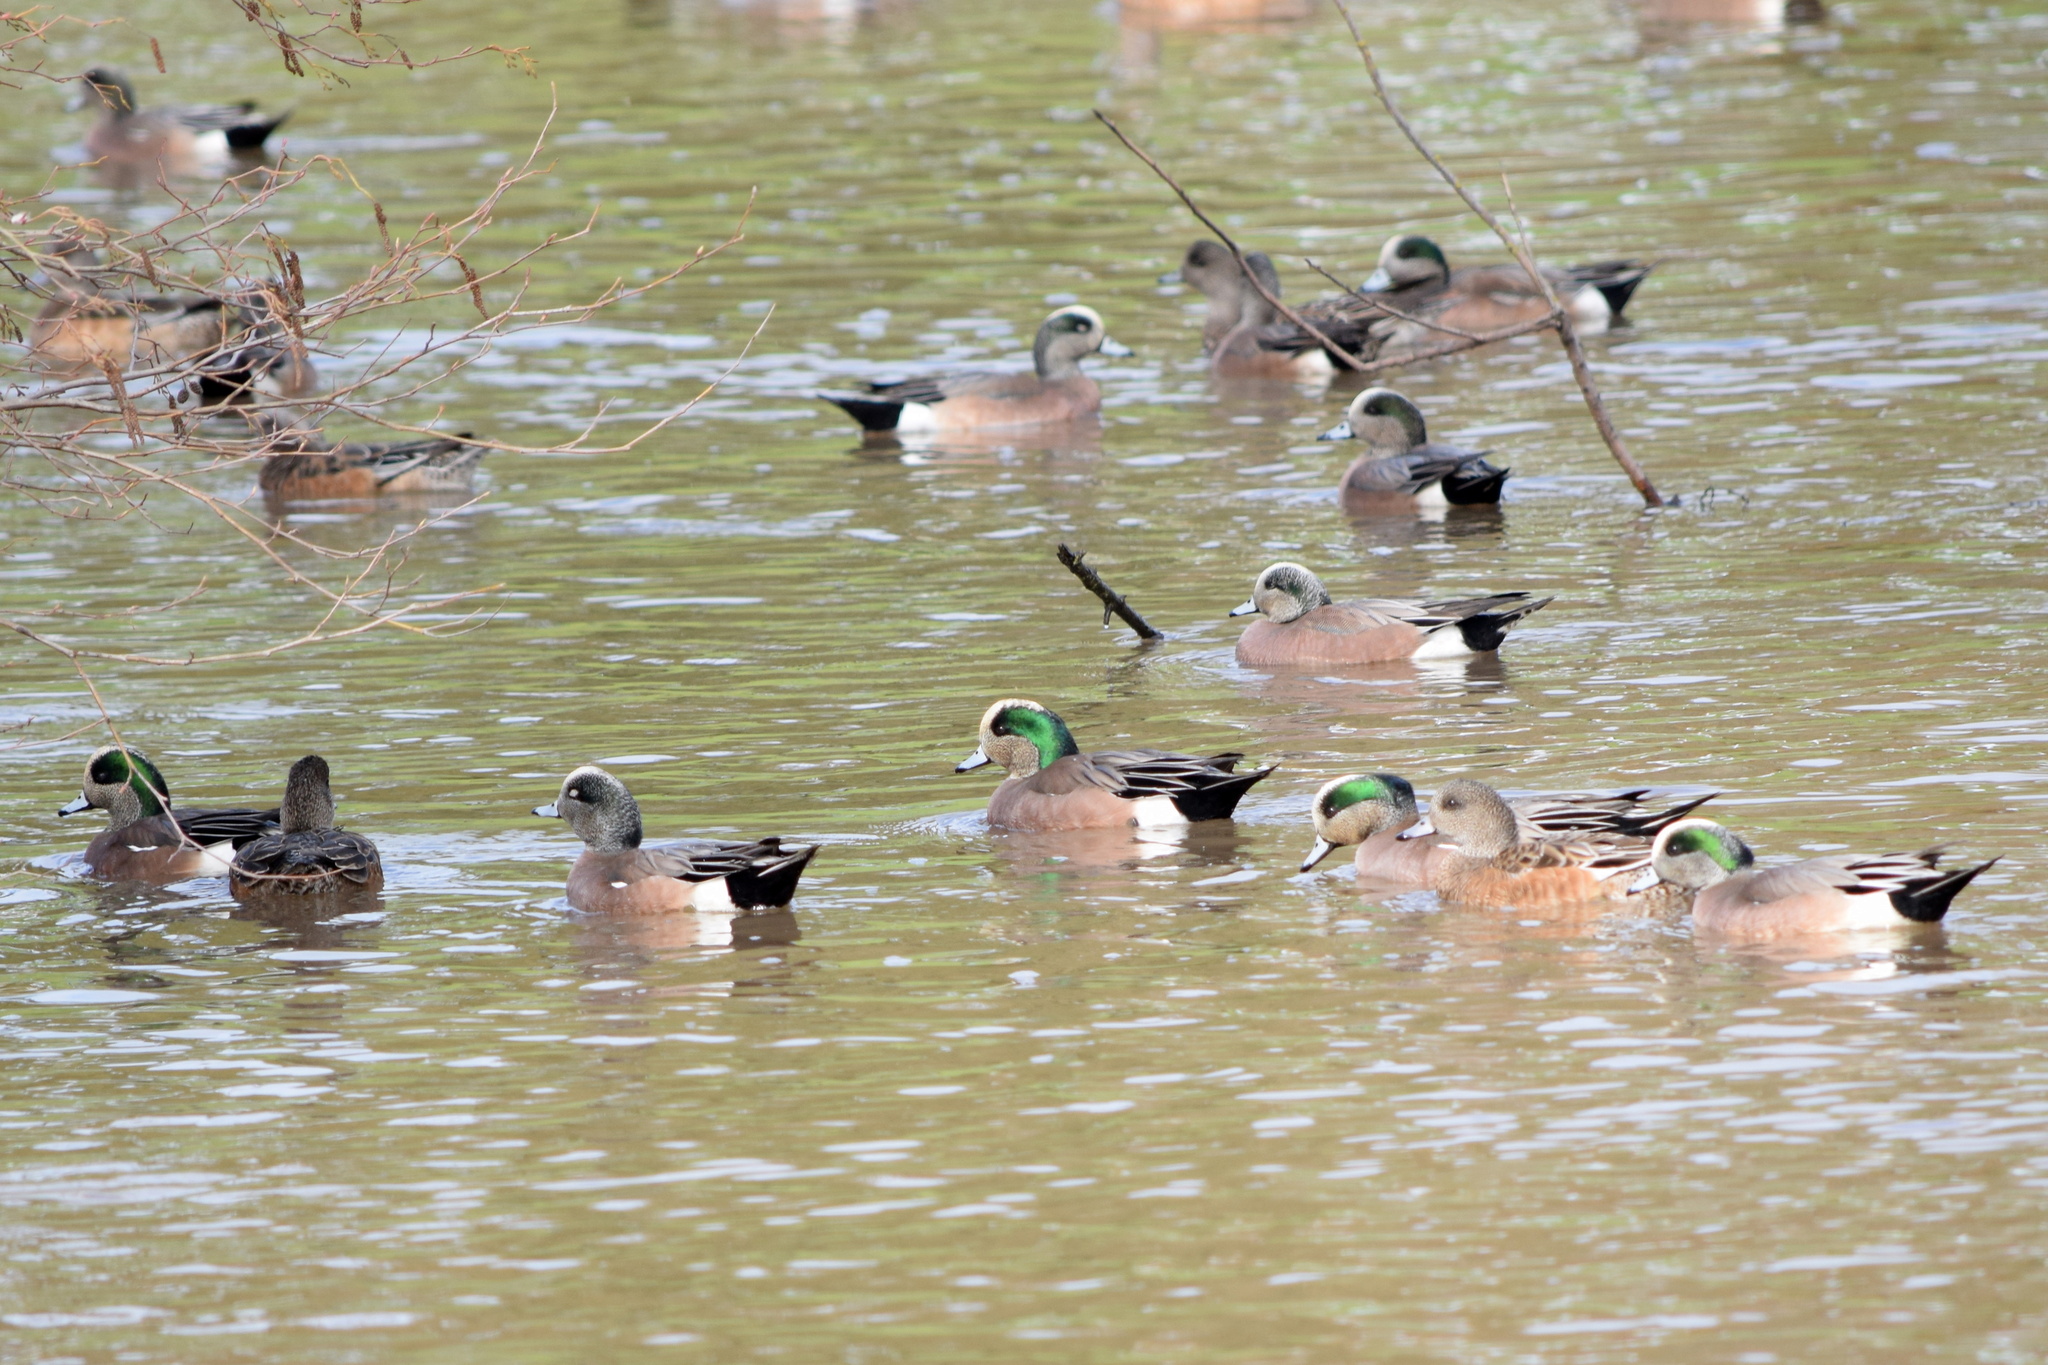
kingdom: Animalia
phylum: Chordata
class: Aves
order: Anseriformes
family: Anatidae
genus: Mareca
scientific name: Mareca americana
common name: American wigeon
